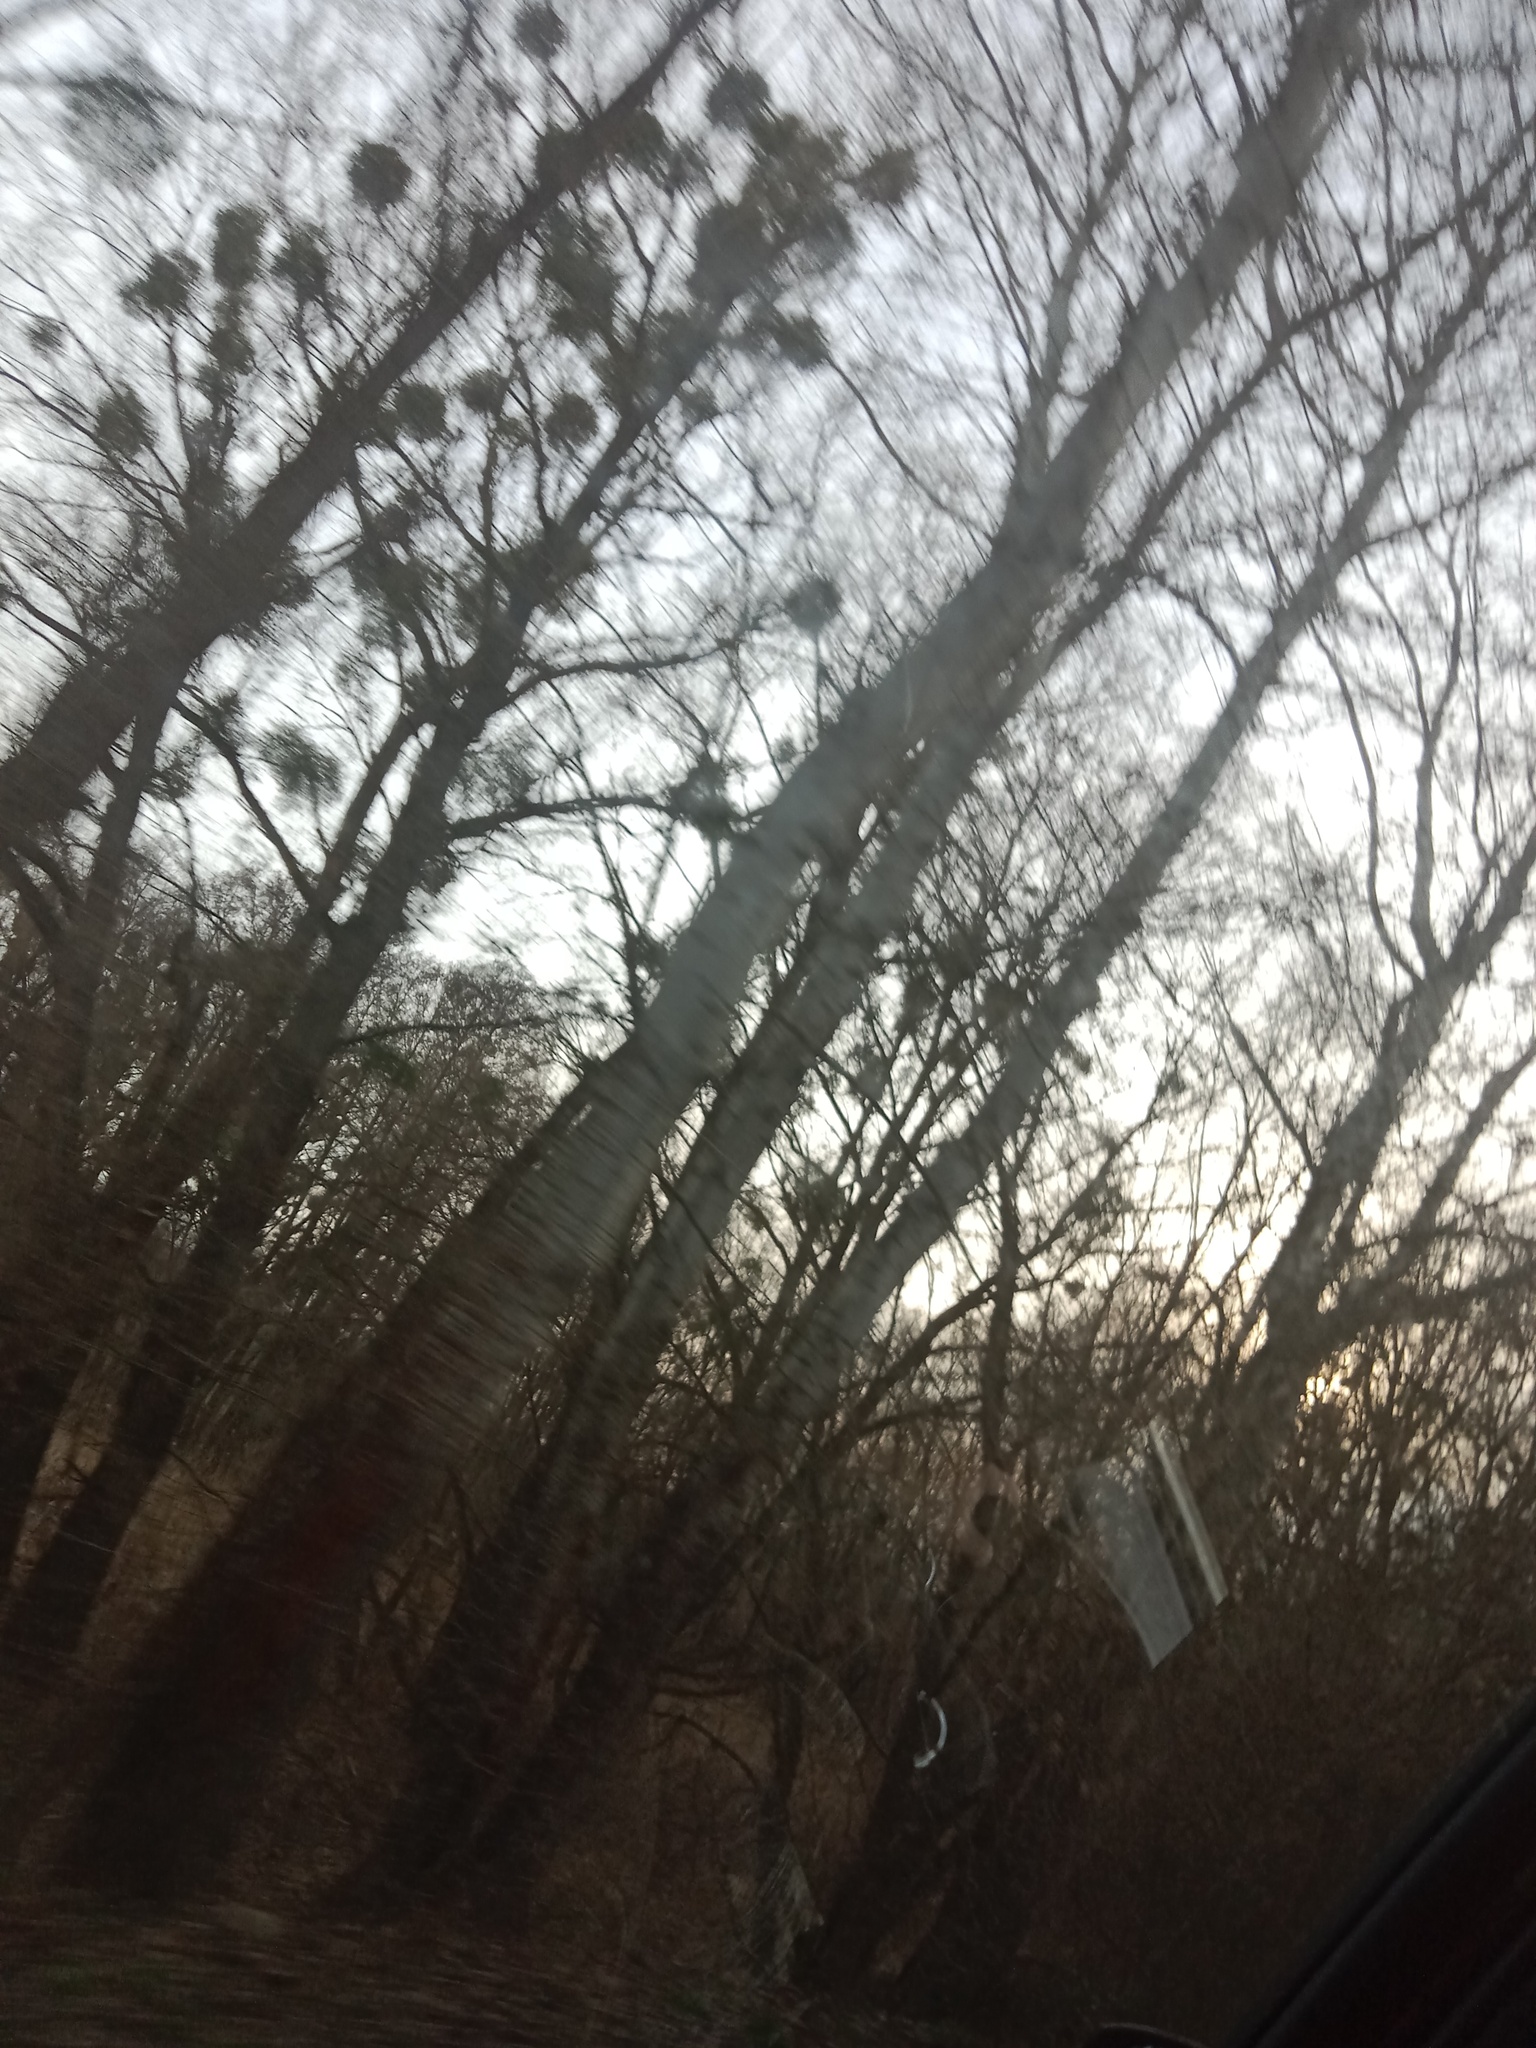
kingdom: Plantae
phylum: Tracheophyta
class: Magnoliopsida
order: Santalales
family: Viscaceae
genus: Viscum
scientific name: Viscum album
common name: Mistletoe
